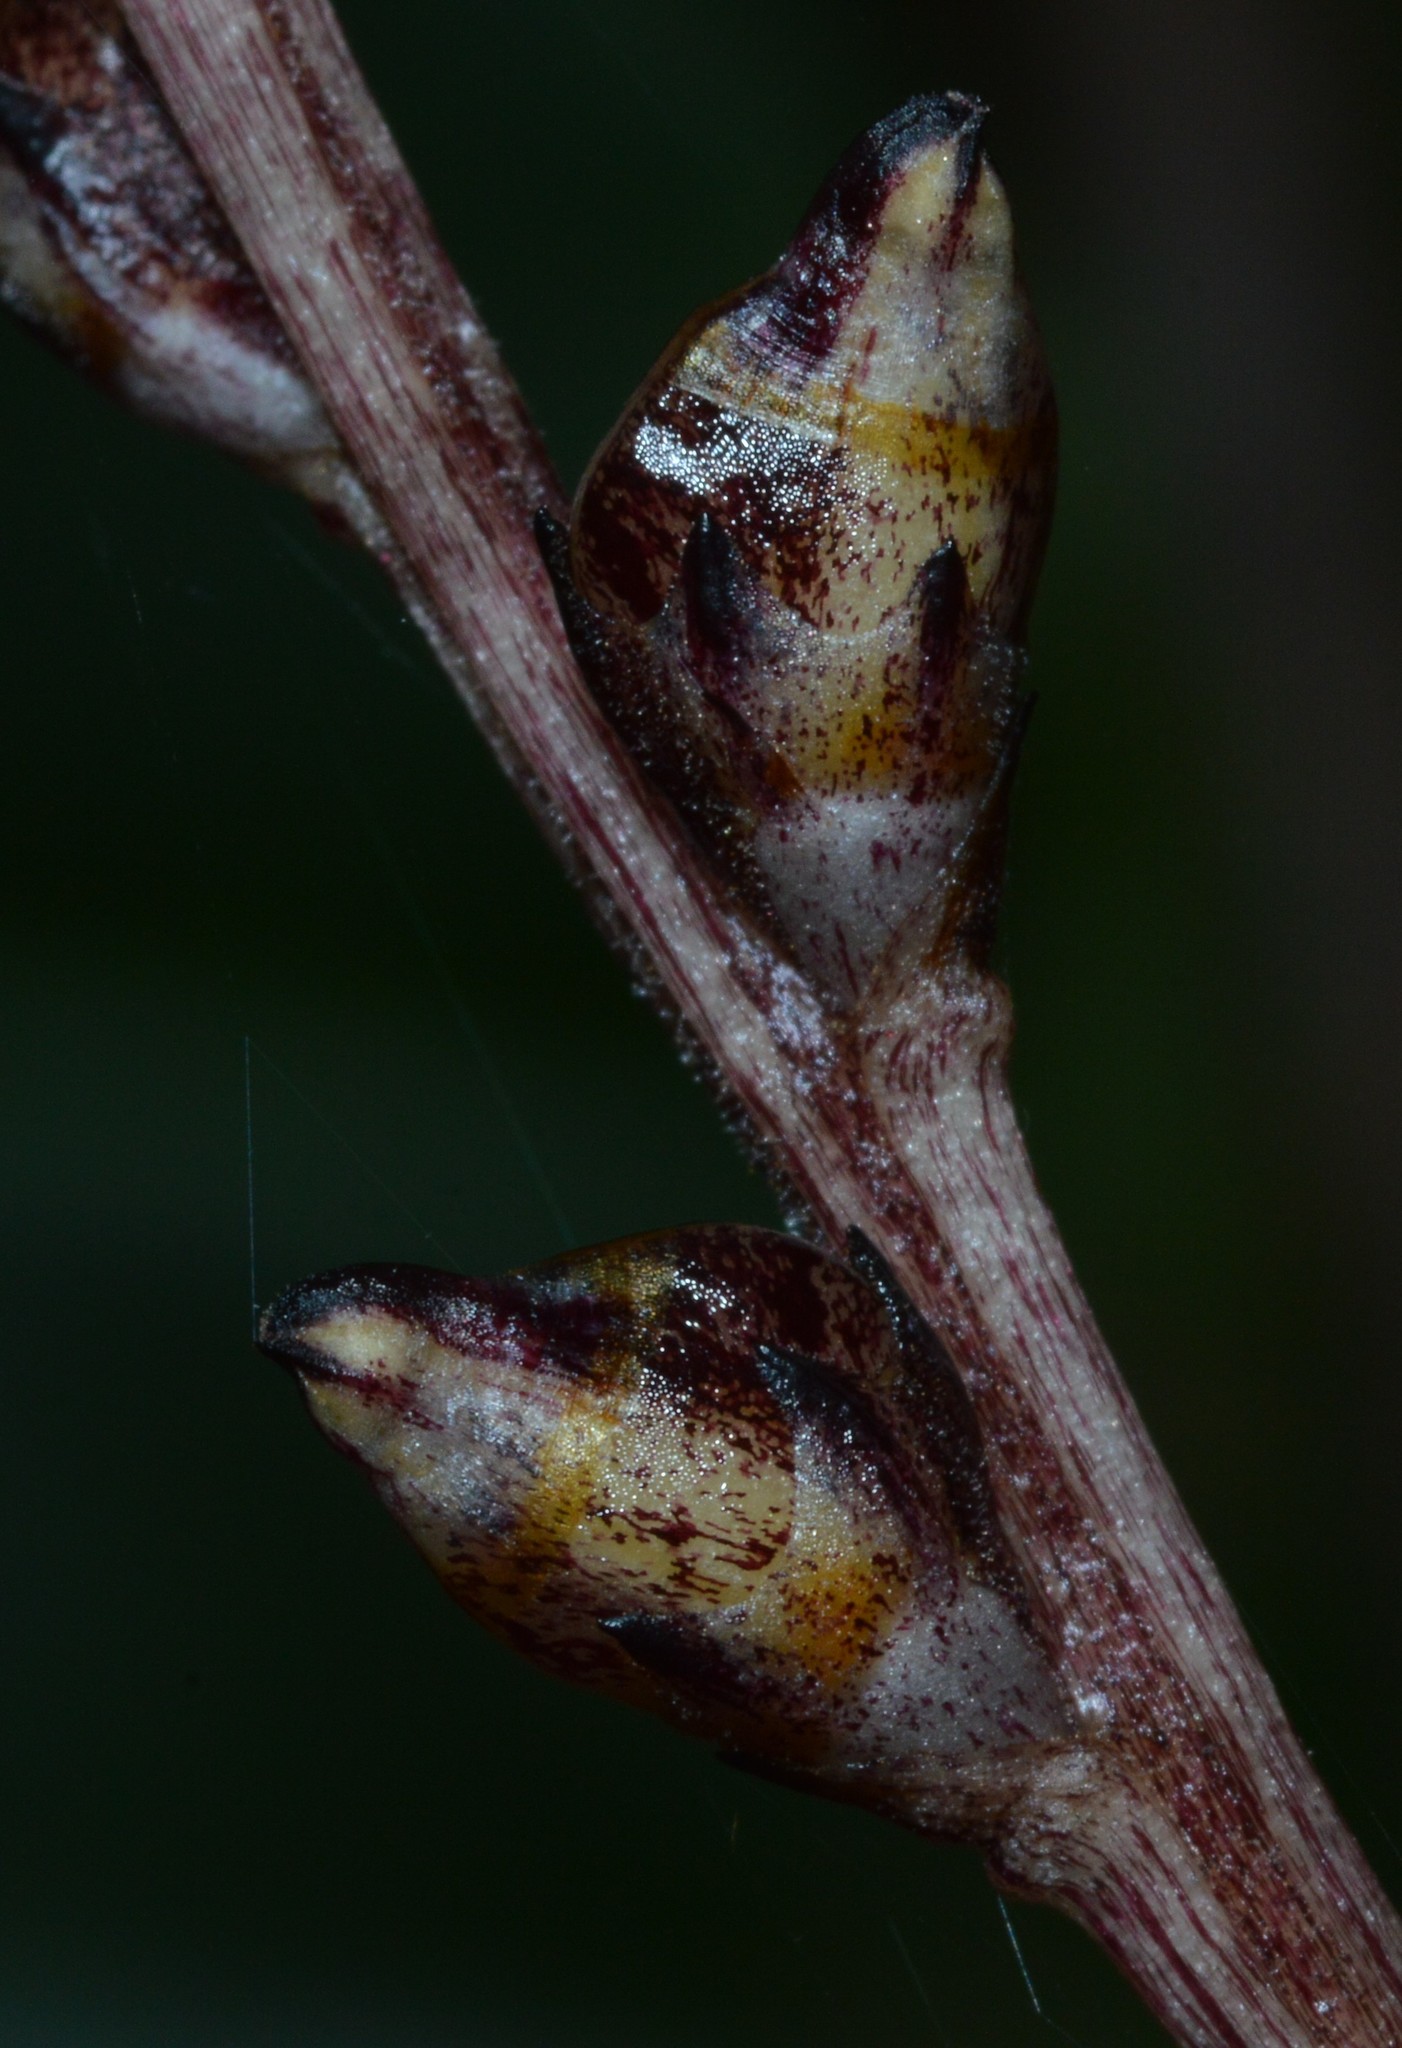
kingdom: Plantae
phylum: Tracheophyta
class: Magnoliopsida
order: Lamiales
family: Orobanchaceae
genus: Epifagus
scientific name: Epifagus virginiana
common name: Beechdrops
